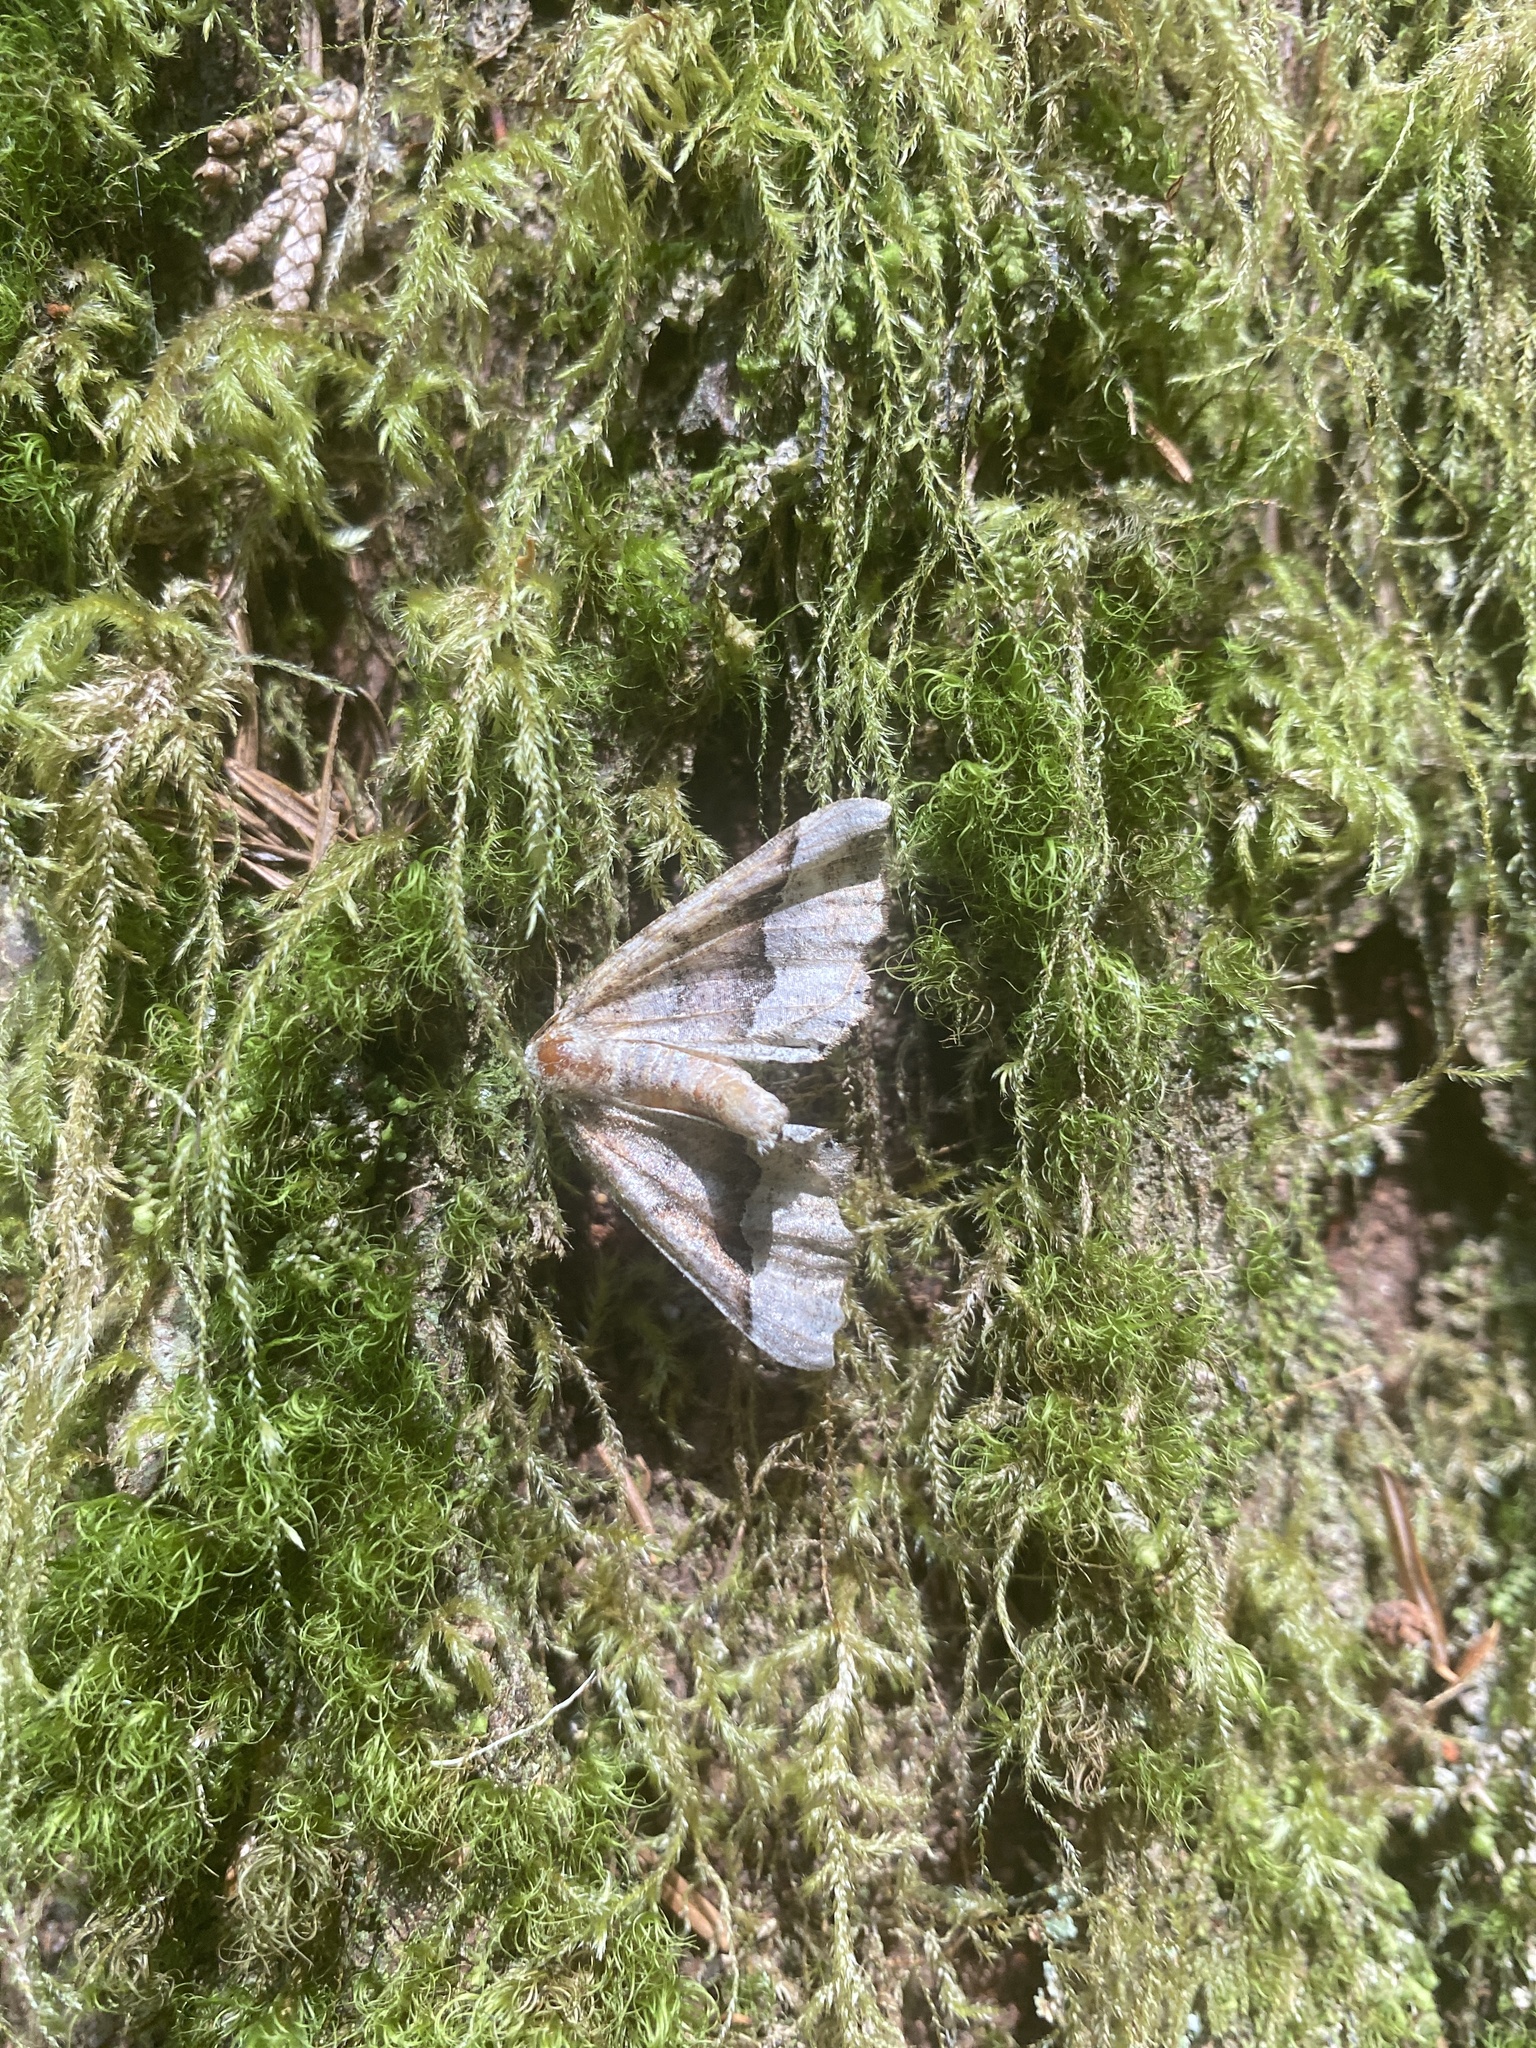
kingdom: Animalia
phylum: Arthropoda
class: Insecta
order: Lepidoptera
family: Geometridae
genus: Pero
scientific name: Pero morrisonaria
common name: Morrison's pero
